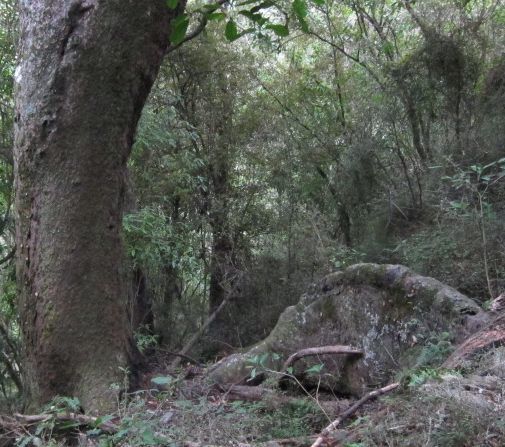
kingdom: Plantae
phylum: Tracheophyta
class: Pinopsida
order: Pinales
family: Podocarpaceae
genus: Prumnopitys
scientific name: Prumnopitys ferruginea
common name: Brown pine
